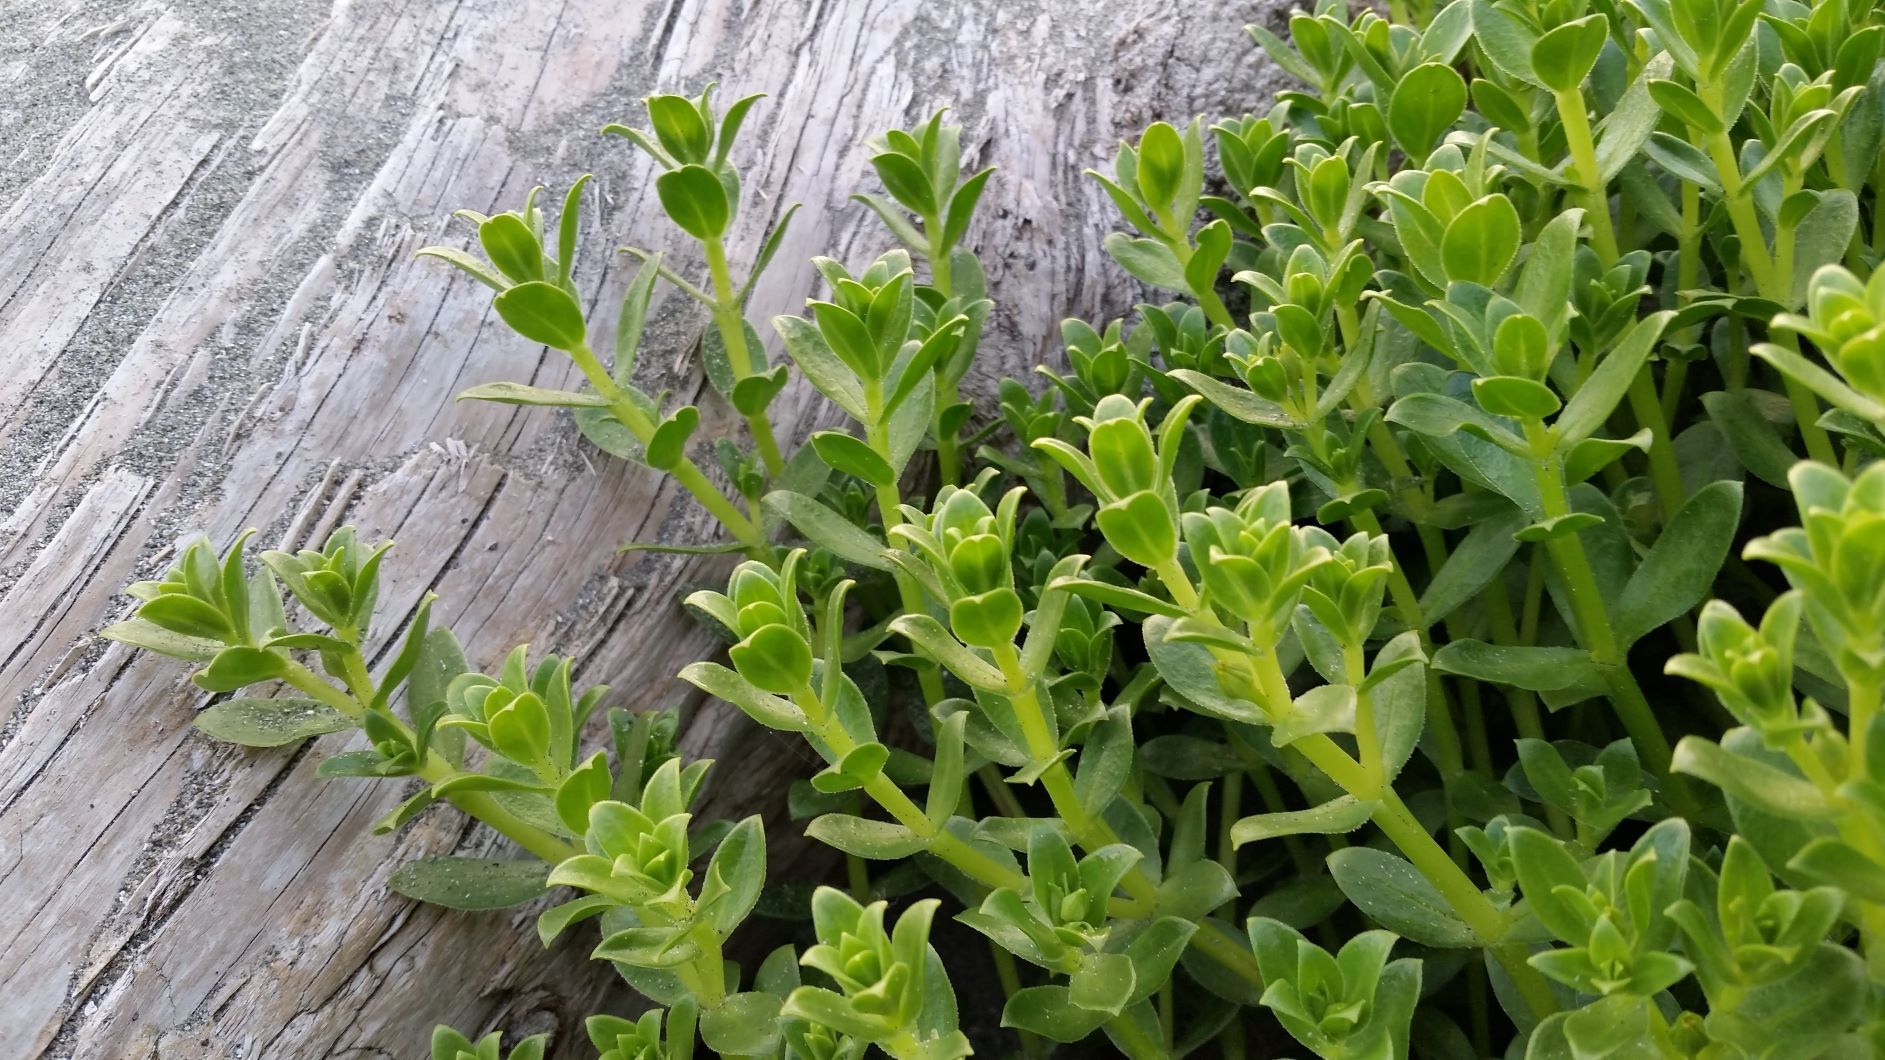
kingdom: Plantae
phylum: Tracheophyta
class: Magnoliopsida
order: Caryophyllales
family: Caryophyllaceae
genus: Honckenya
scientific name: Honckenya peploides
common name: Sea sandwort
